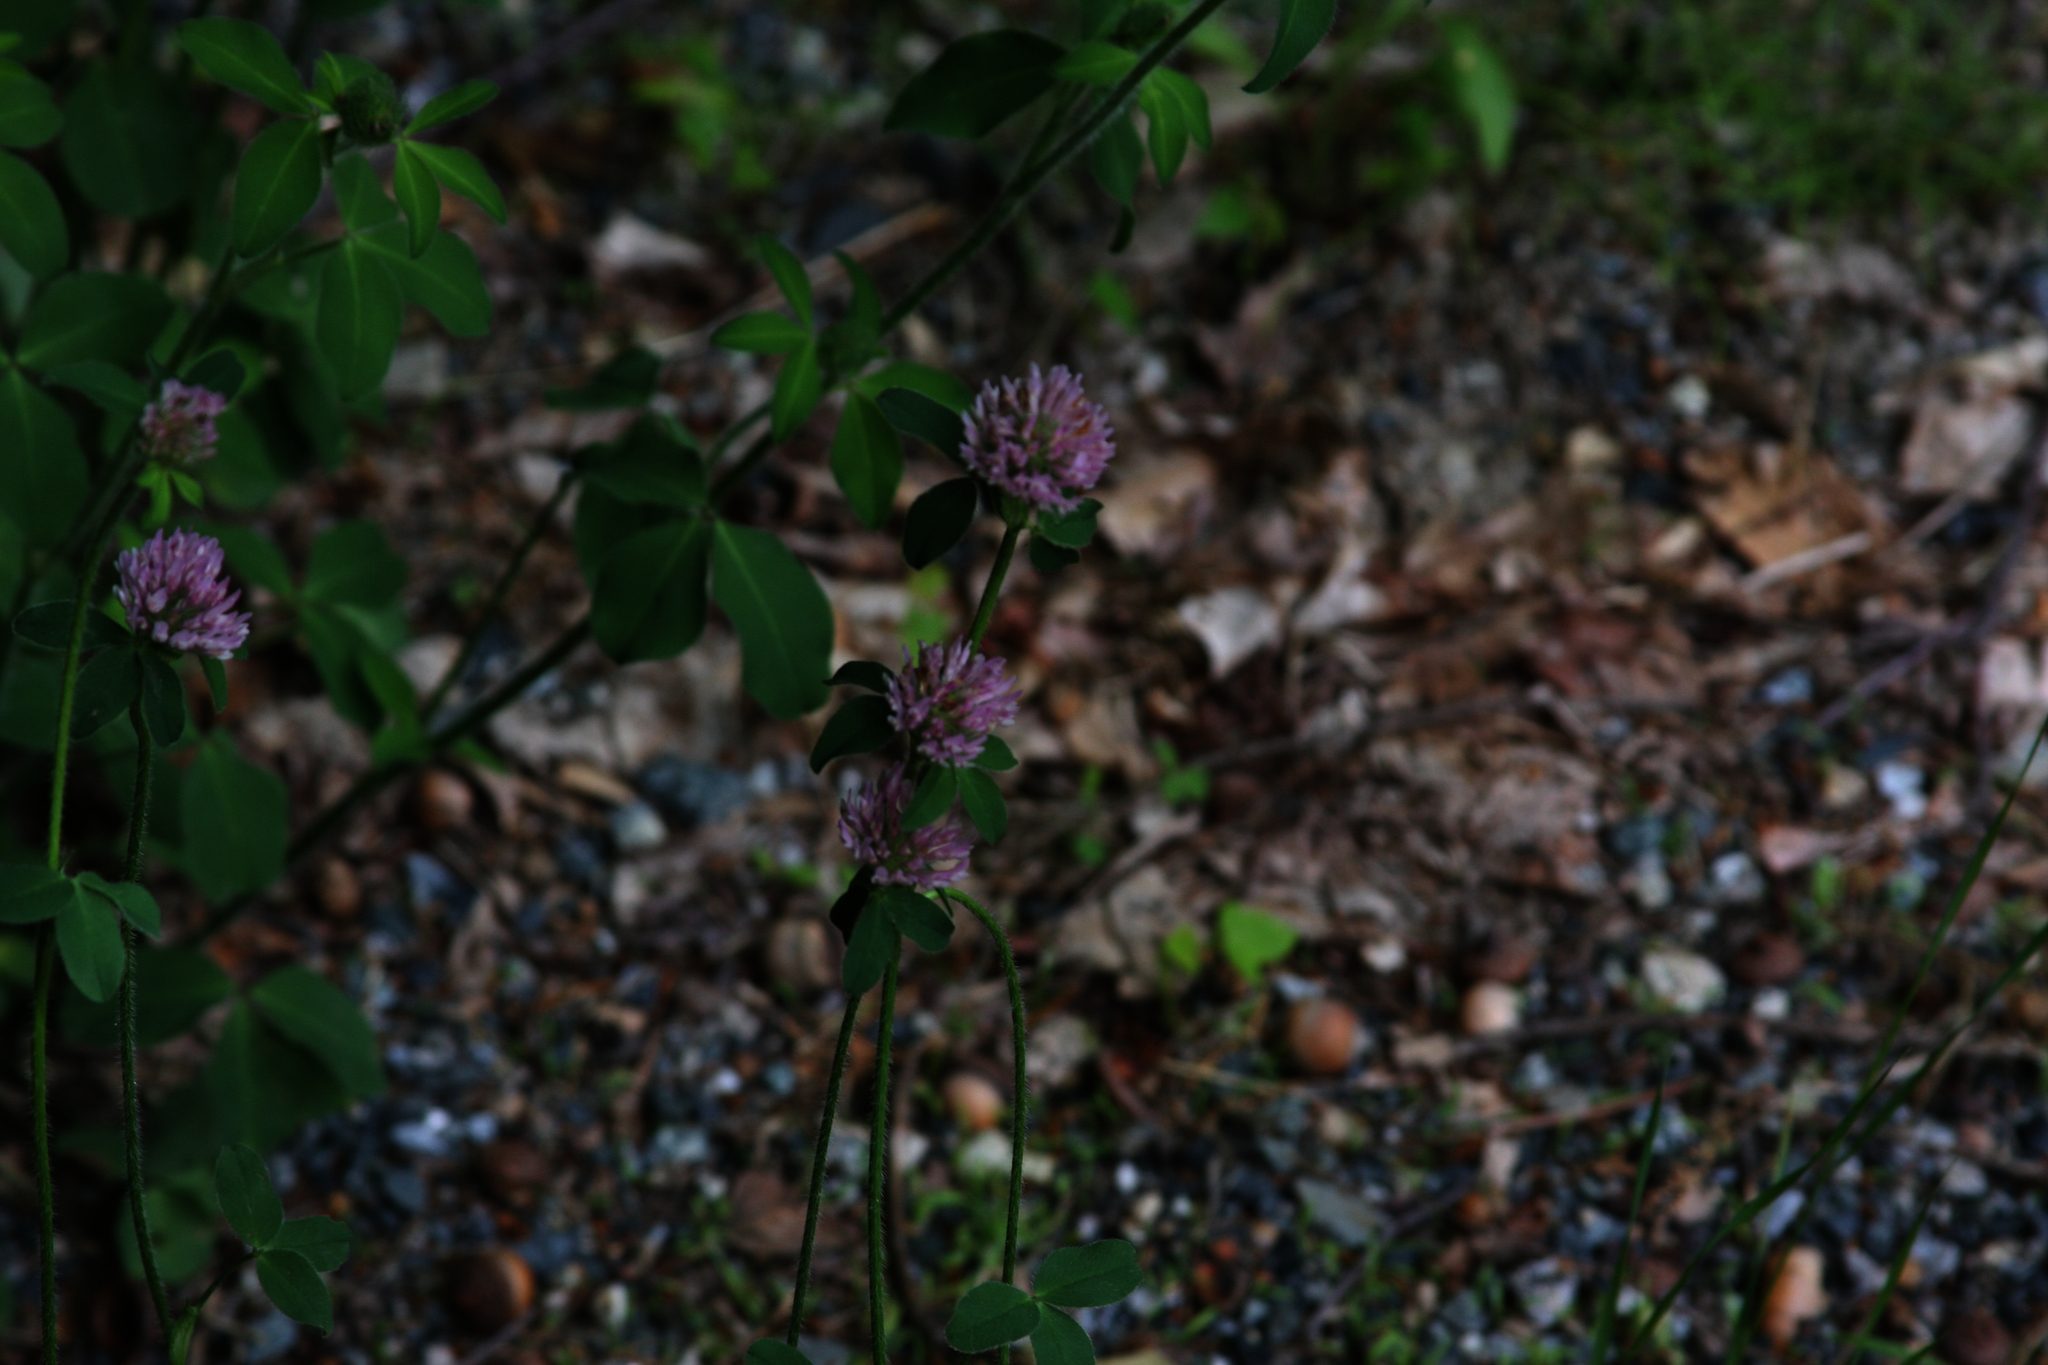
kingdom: Plantae
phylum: Tracheophyta
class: Magnoliopsida
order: Fabales
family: Fabaceae
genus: Trifolium
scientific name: Trifolium pratense
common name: Red clover
